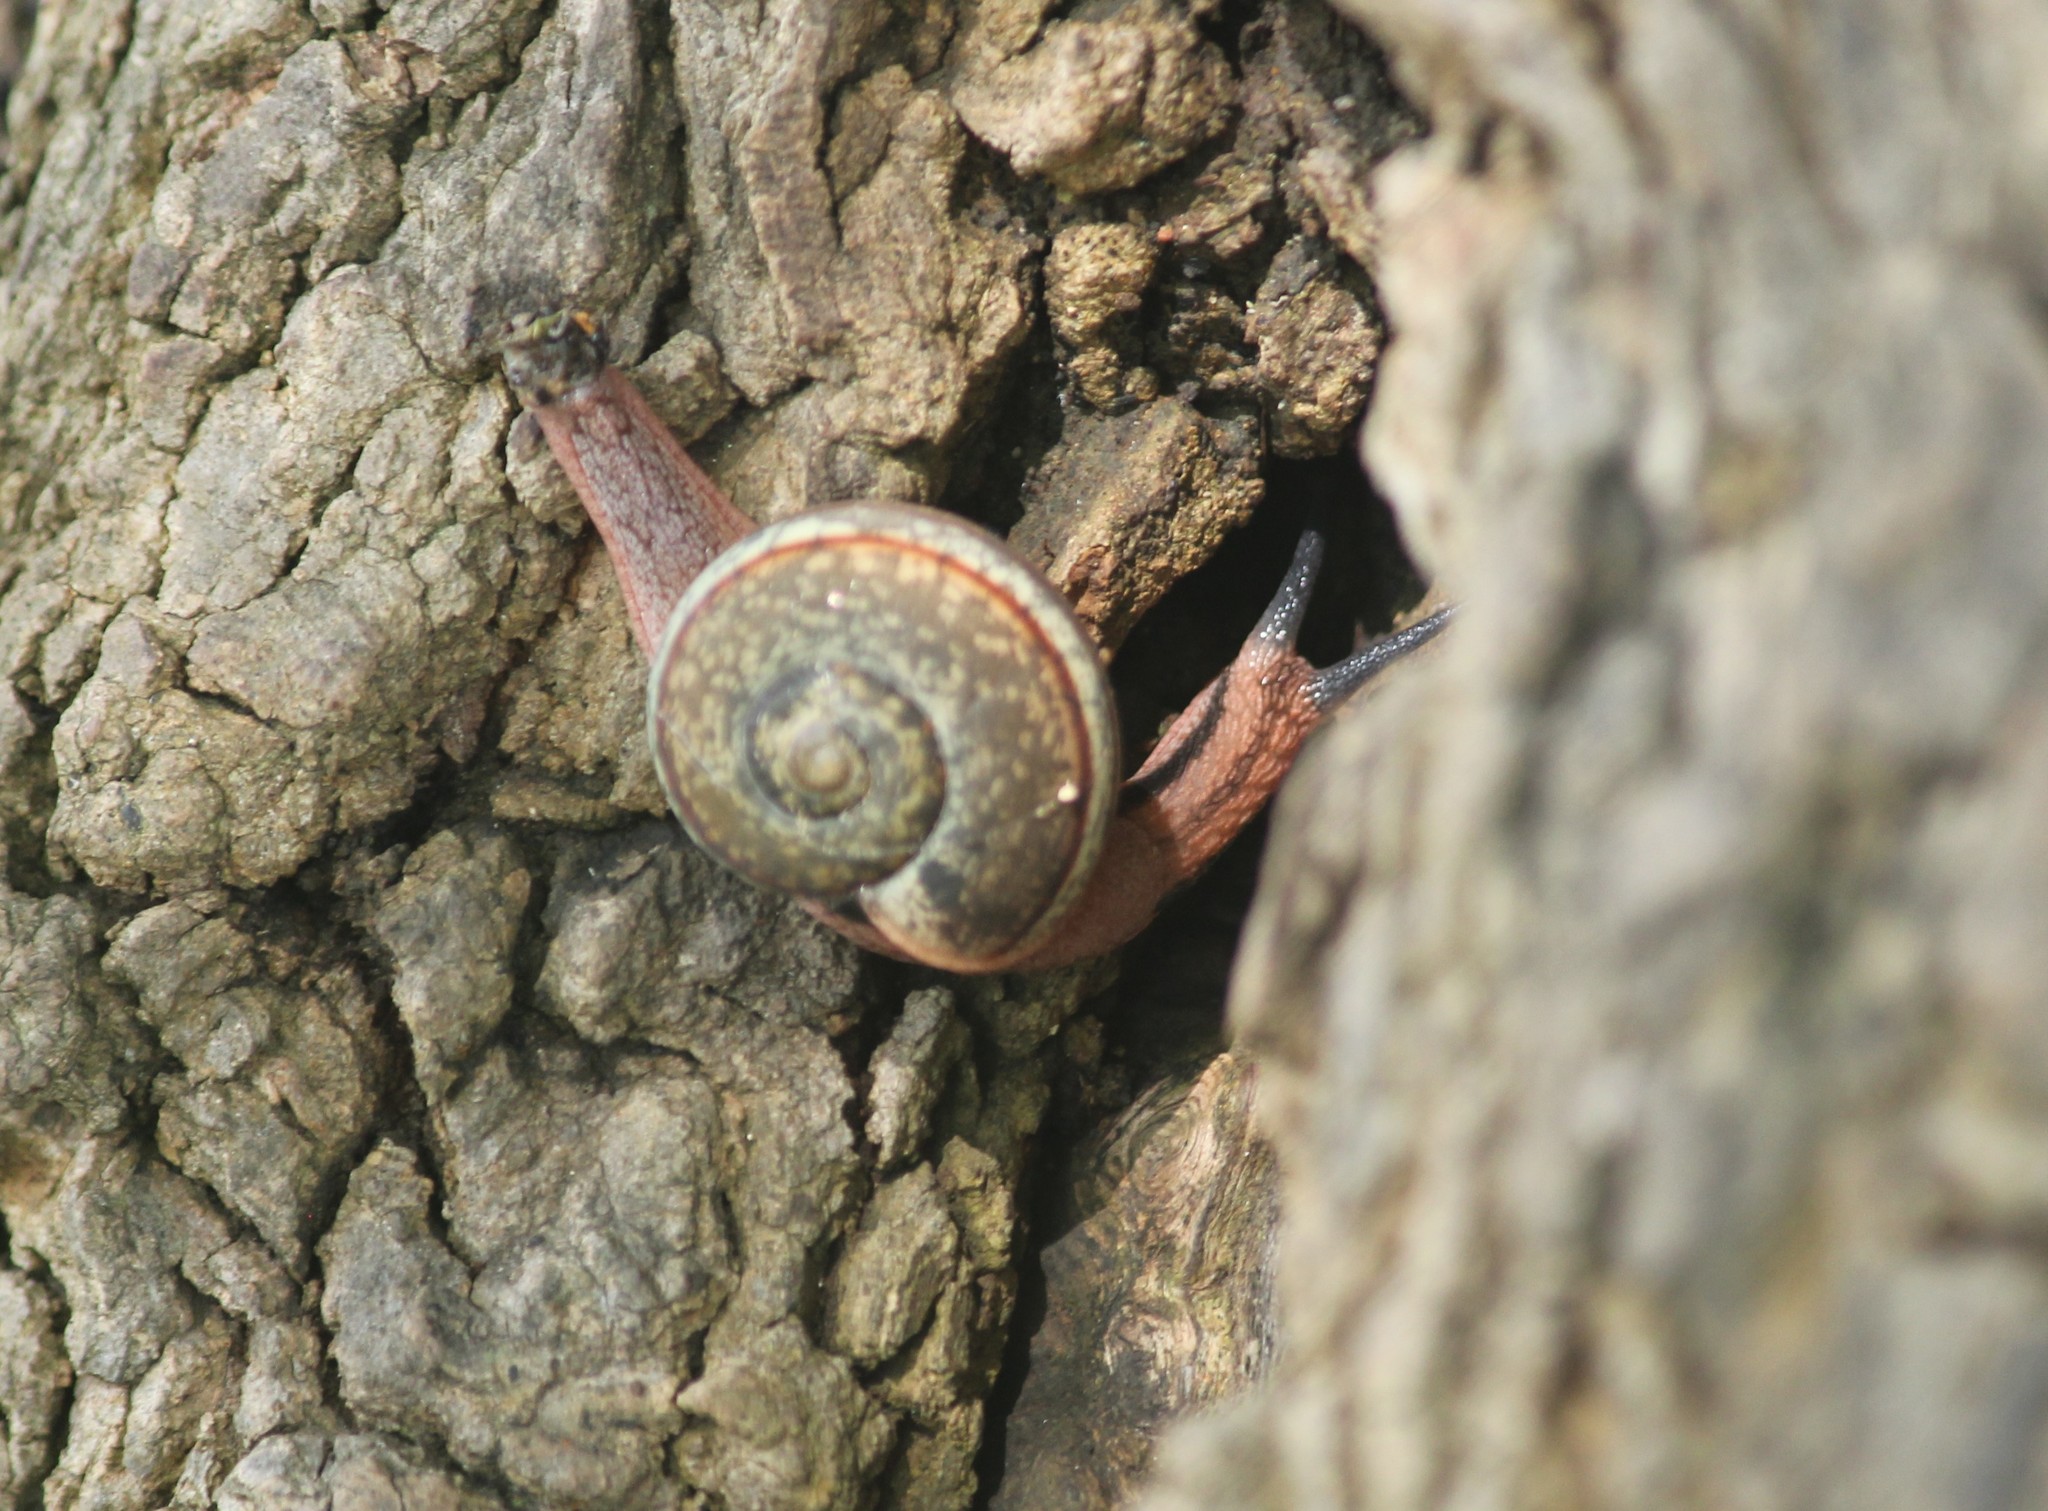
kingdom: Animalia
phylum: Mollusca
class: Gastropoda
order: Stylommatophora
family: Ariophantidae
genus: Ariophanta
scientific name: Ariophanta exilis
